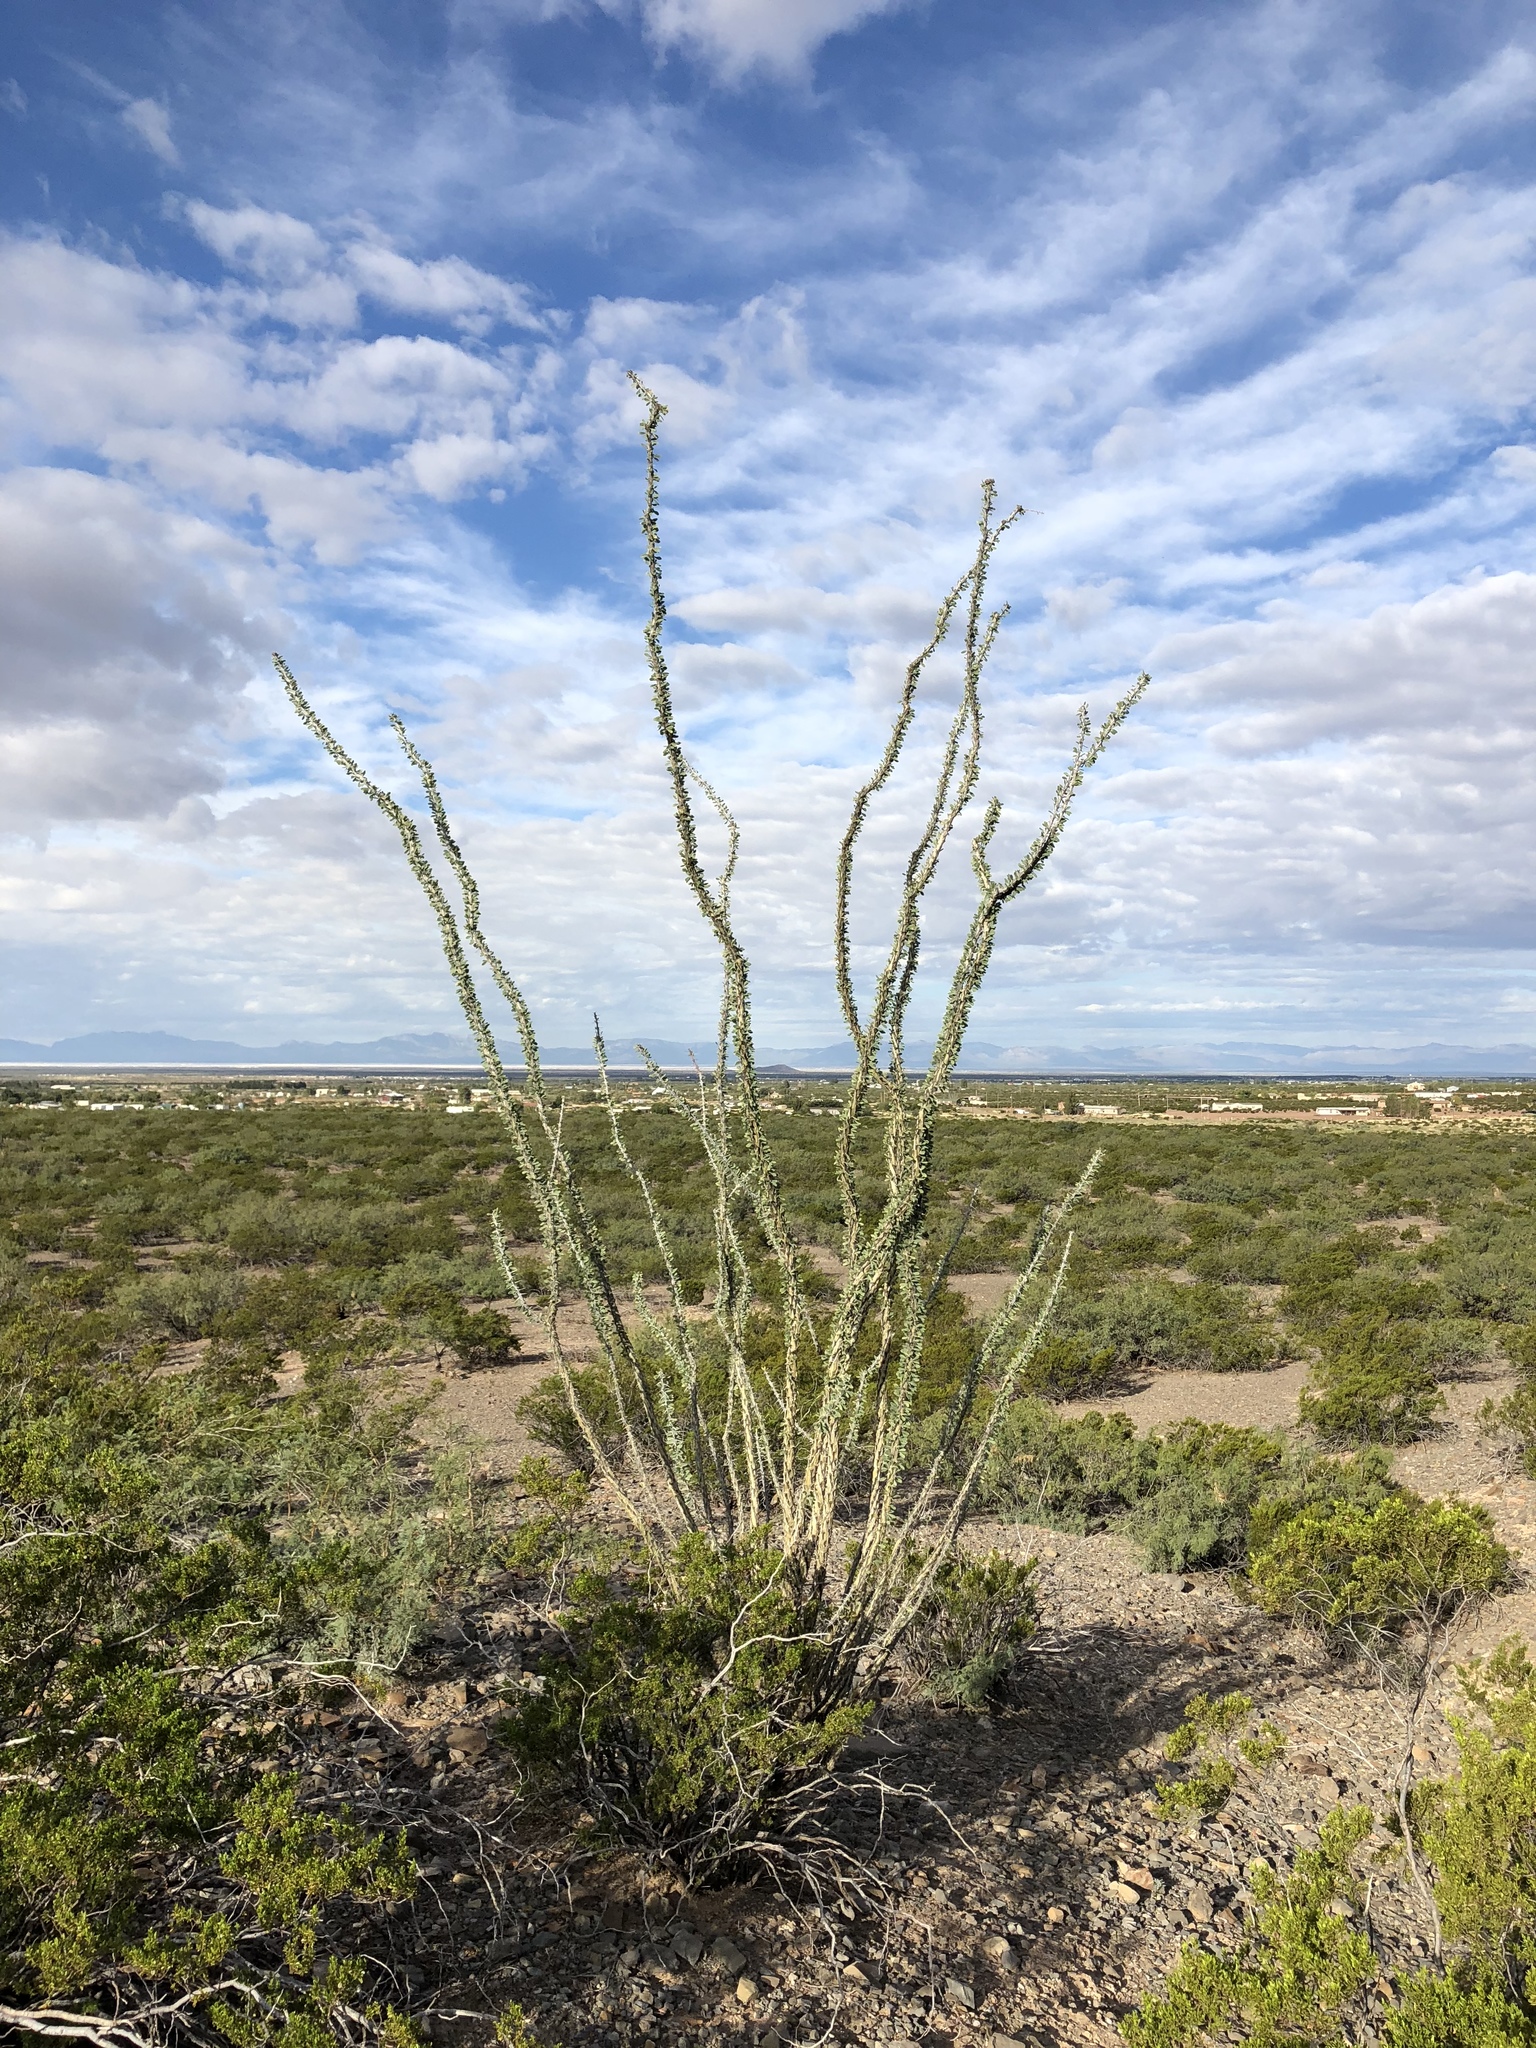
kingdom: Plantae
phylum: Tracheophyta
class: Magnoliopsida
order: Ericales
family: Fouquieriaceae
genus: Fouquieria
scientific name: Fouquieria splendens
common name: Vine-cactus
